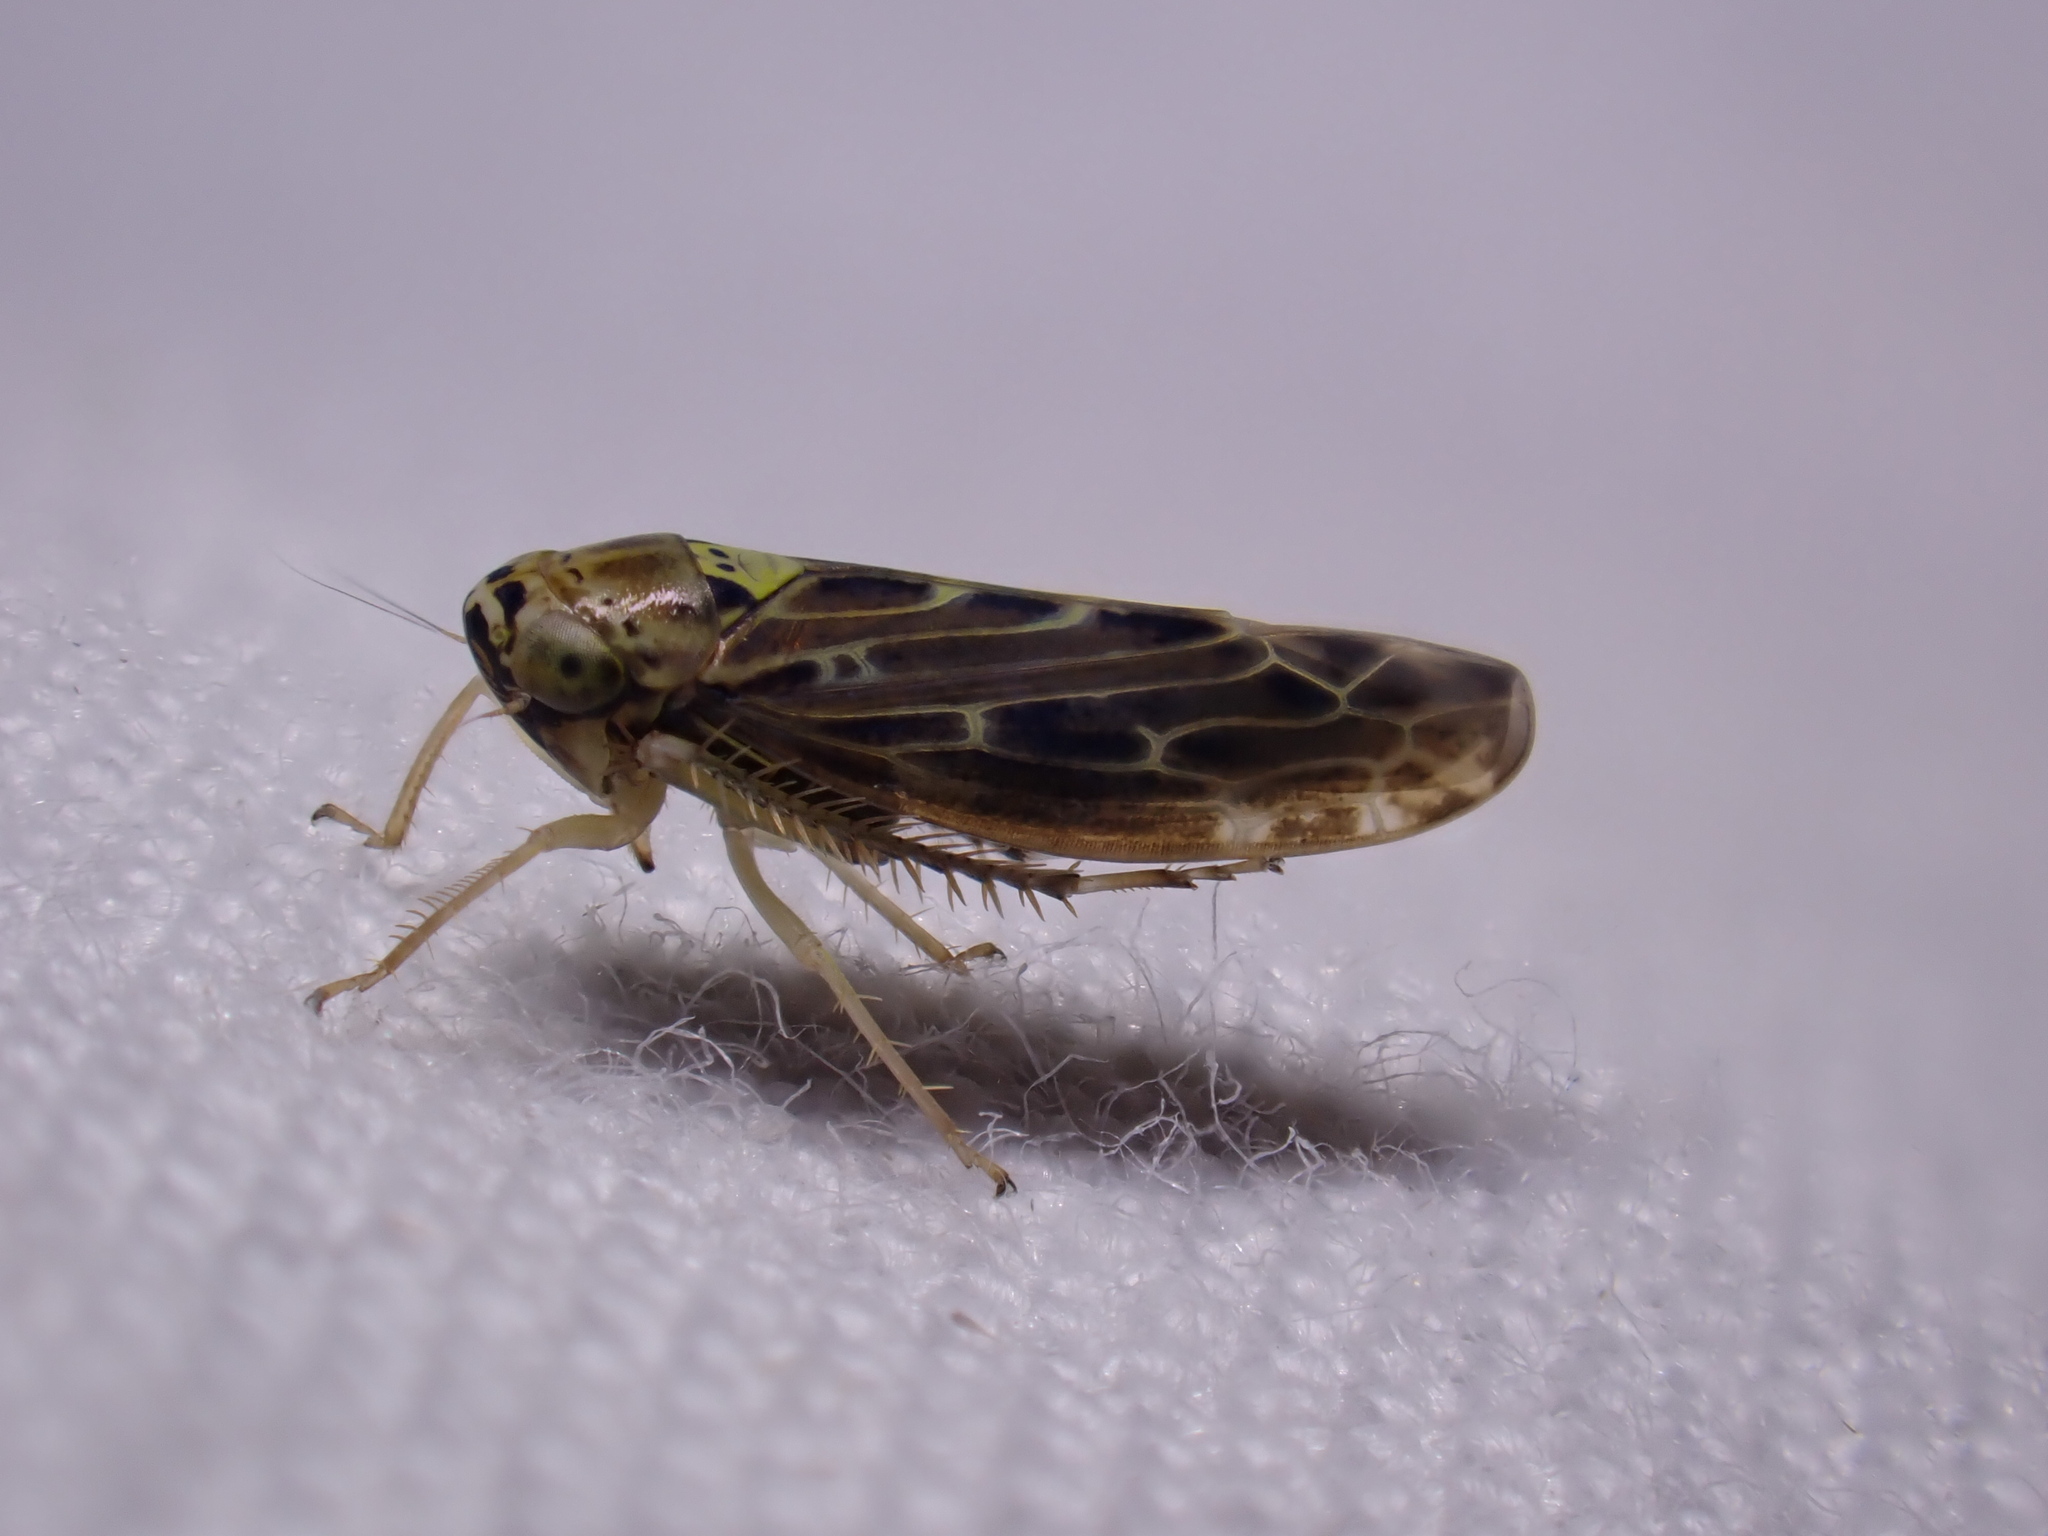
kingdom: Animalia
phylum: Arthropoda
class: Insecta
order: Hemiptera
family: Cicadellidae
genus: Lamprotettix
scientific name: Lamprotettix nitidulus
